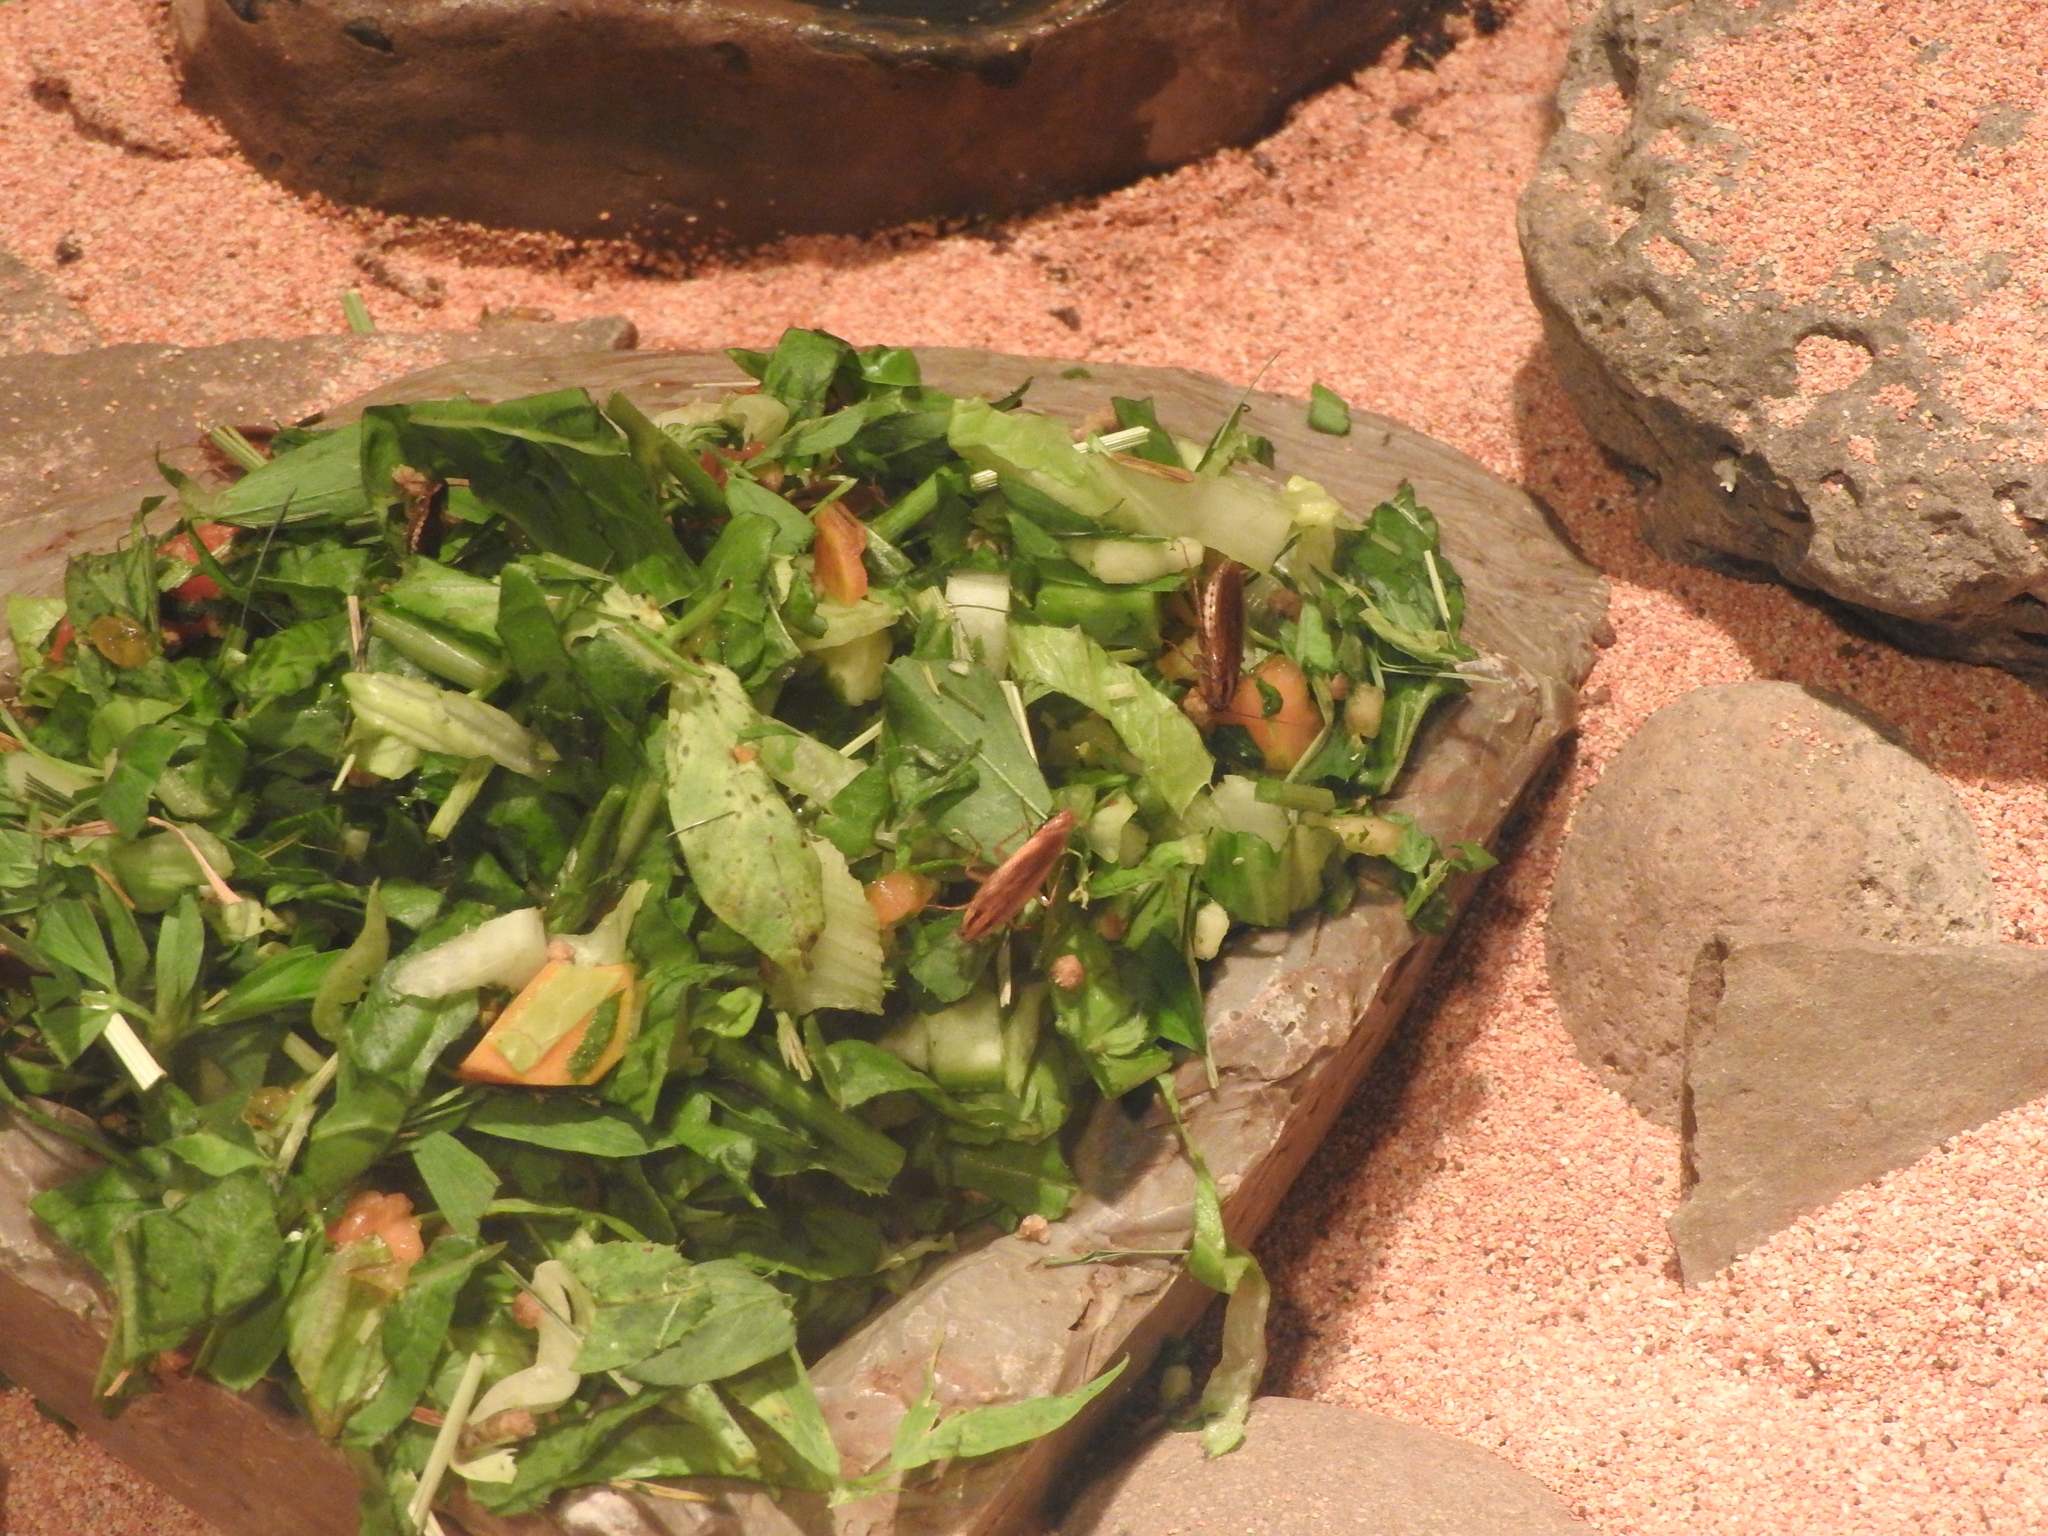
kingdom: Animalia
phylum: Arthropoda
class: Insecta
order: Blattodea
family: Ectobiidae
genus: Blattella
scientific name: Blattella germanica
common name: German cockroach
